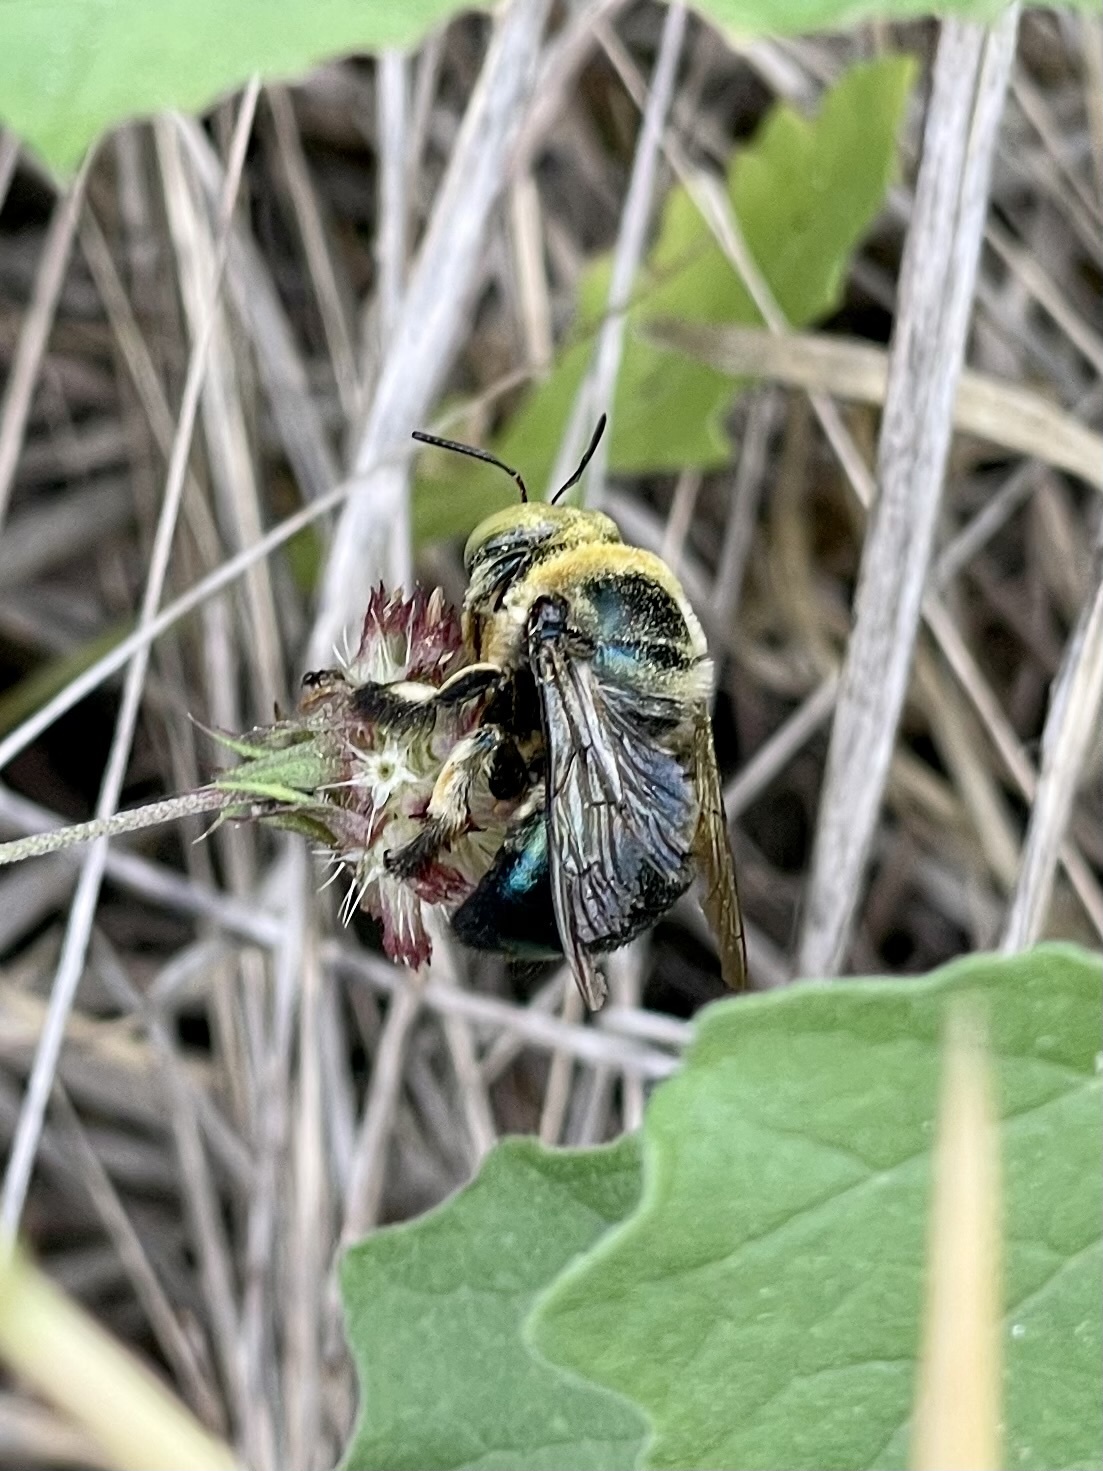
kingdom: Animalia
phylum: Arthropoda
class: Insecta
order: Hymenoptera
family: Apidae
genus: Xylocopa
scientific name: Xylocopa micans
